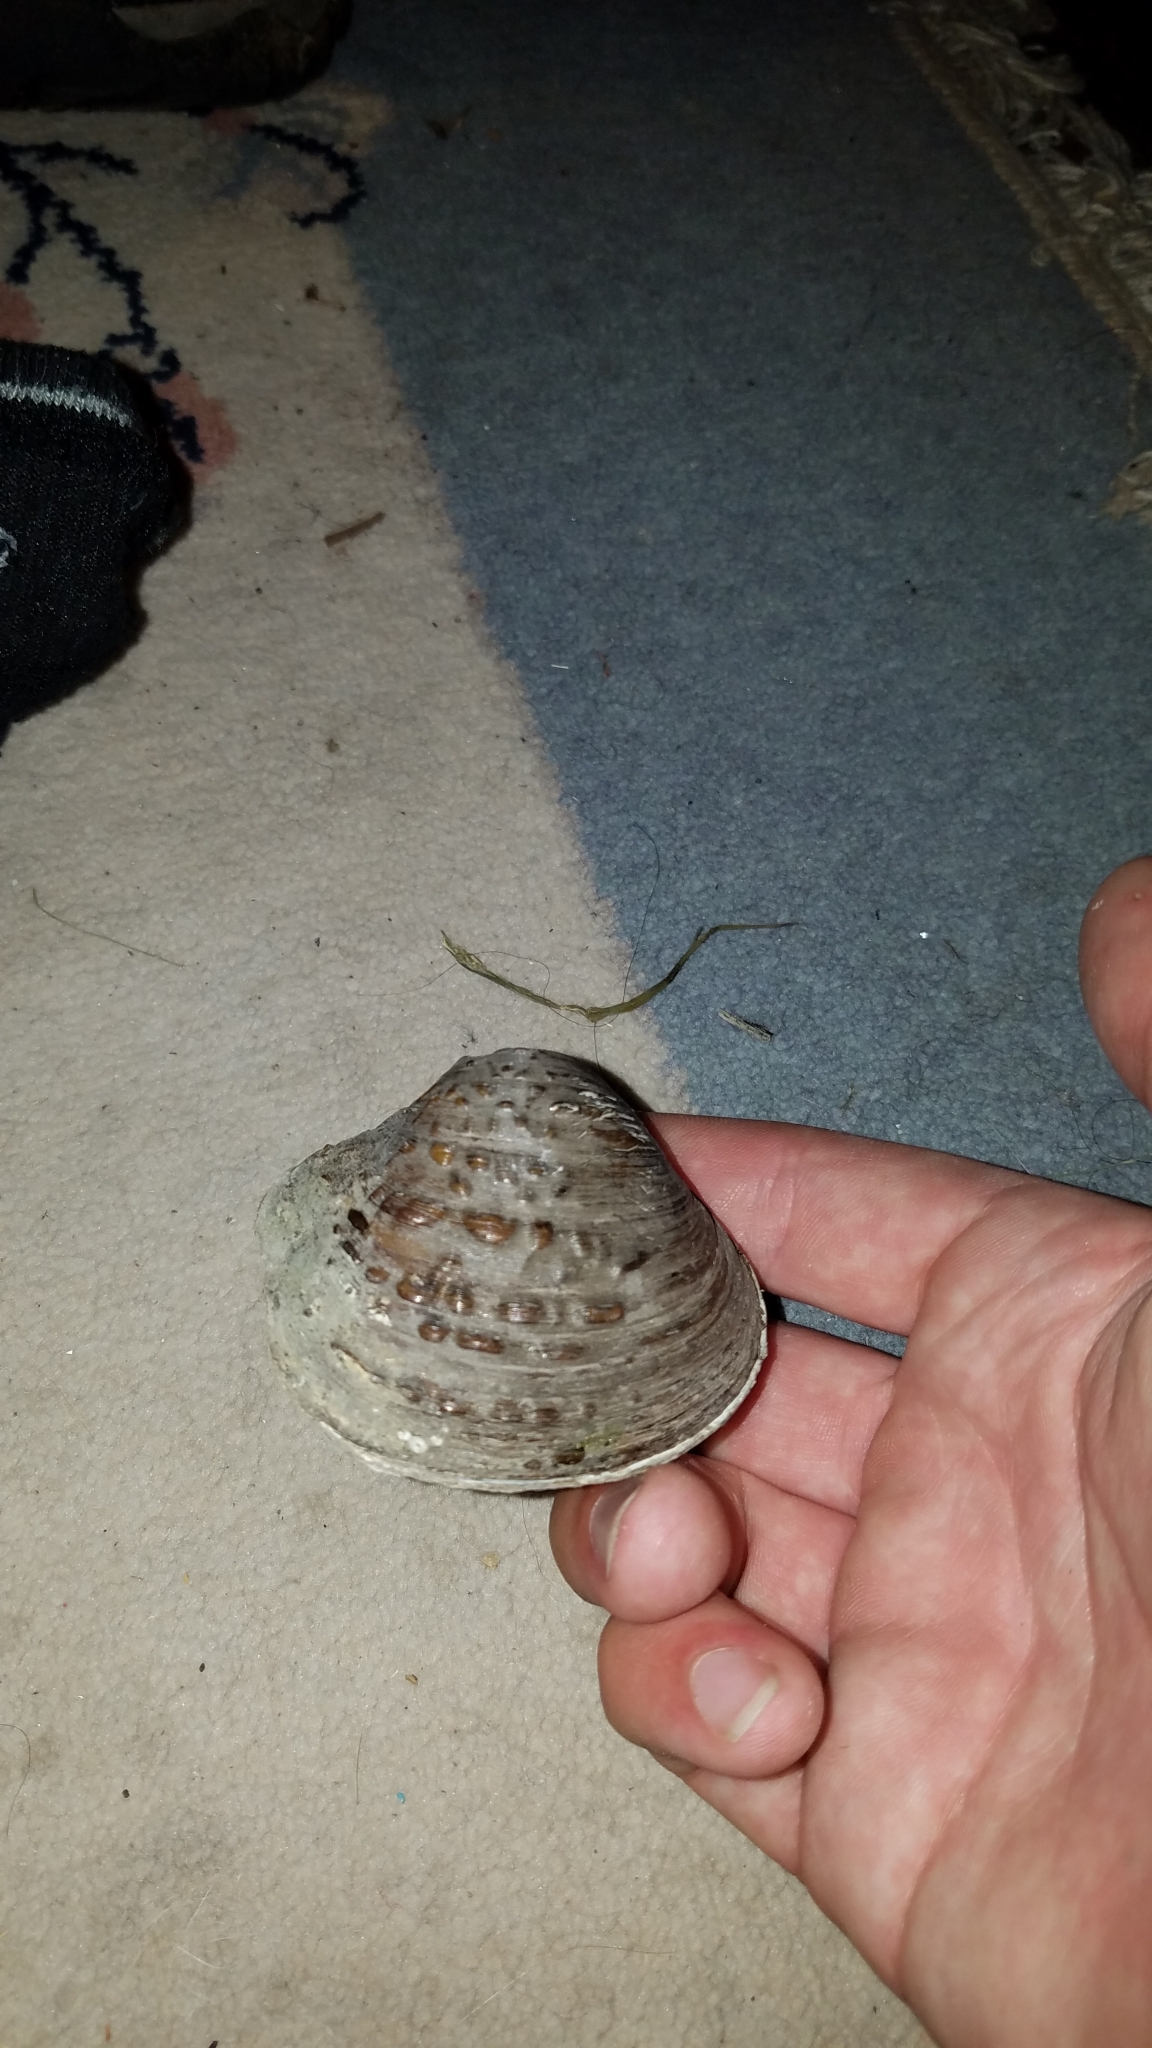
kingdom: Animalia
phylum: Mollusca
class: Bivalvia
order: Unionida
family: Unionidae
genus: Cyclonaias
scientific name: Cyclonaias pustulosa
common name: Pimpleback
